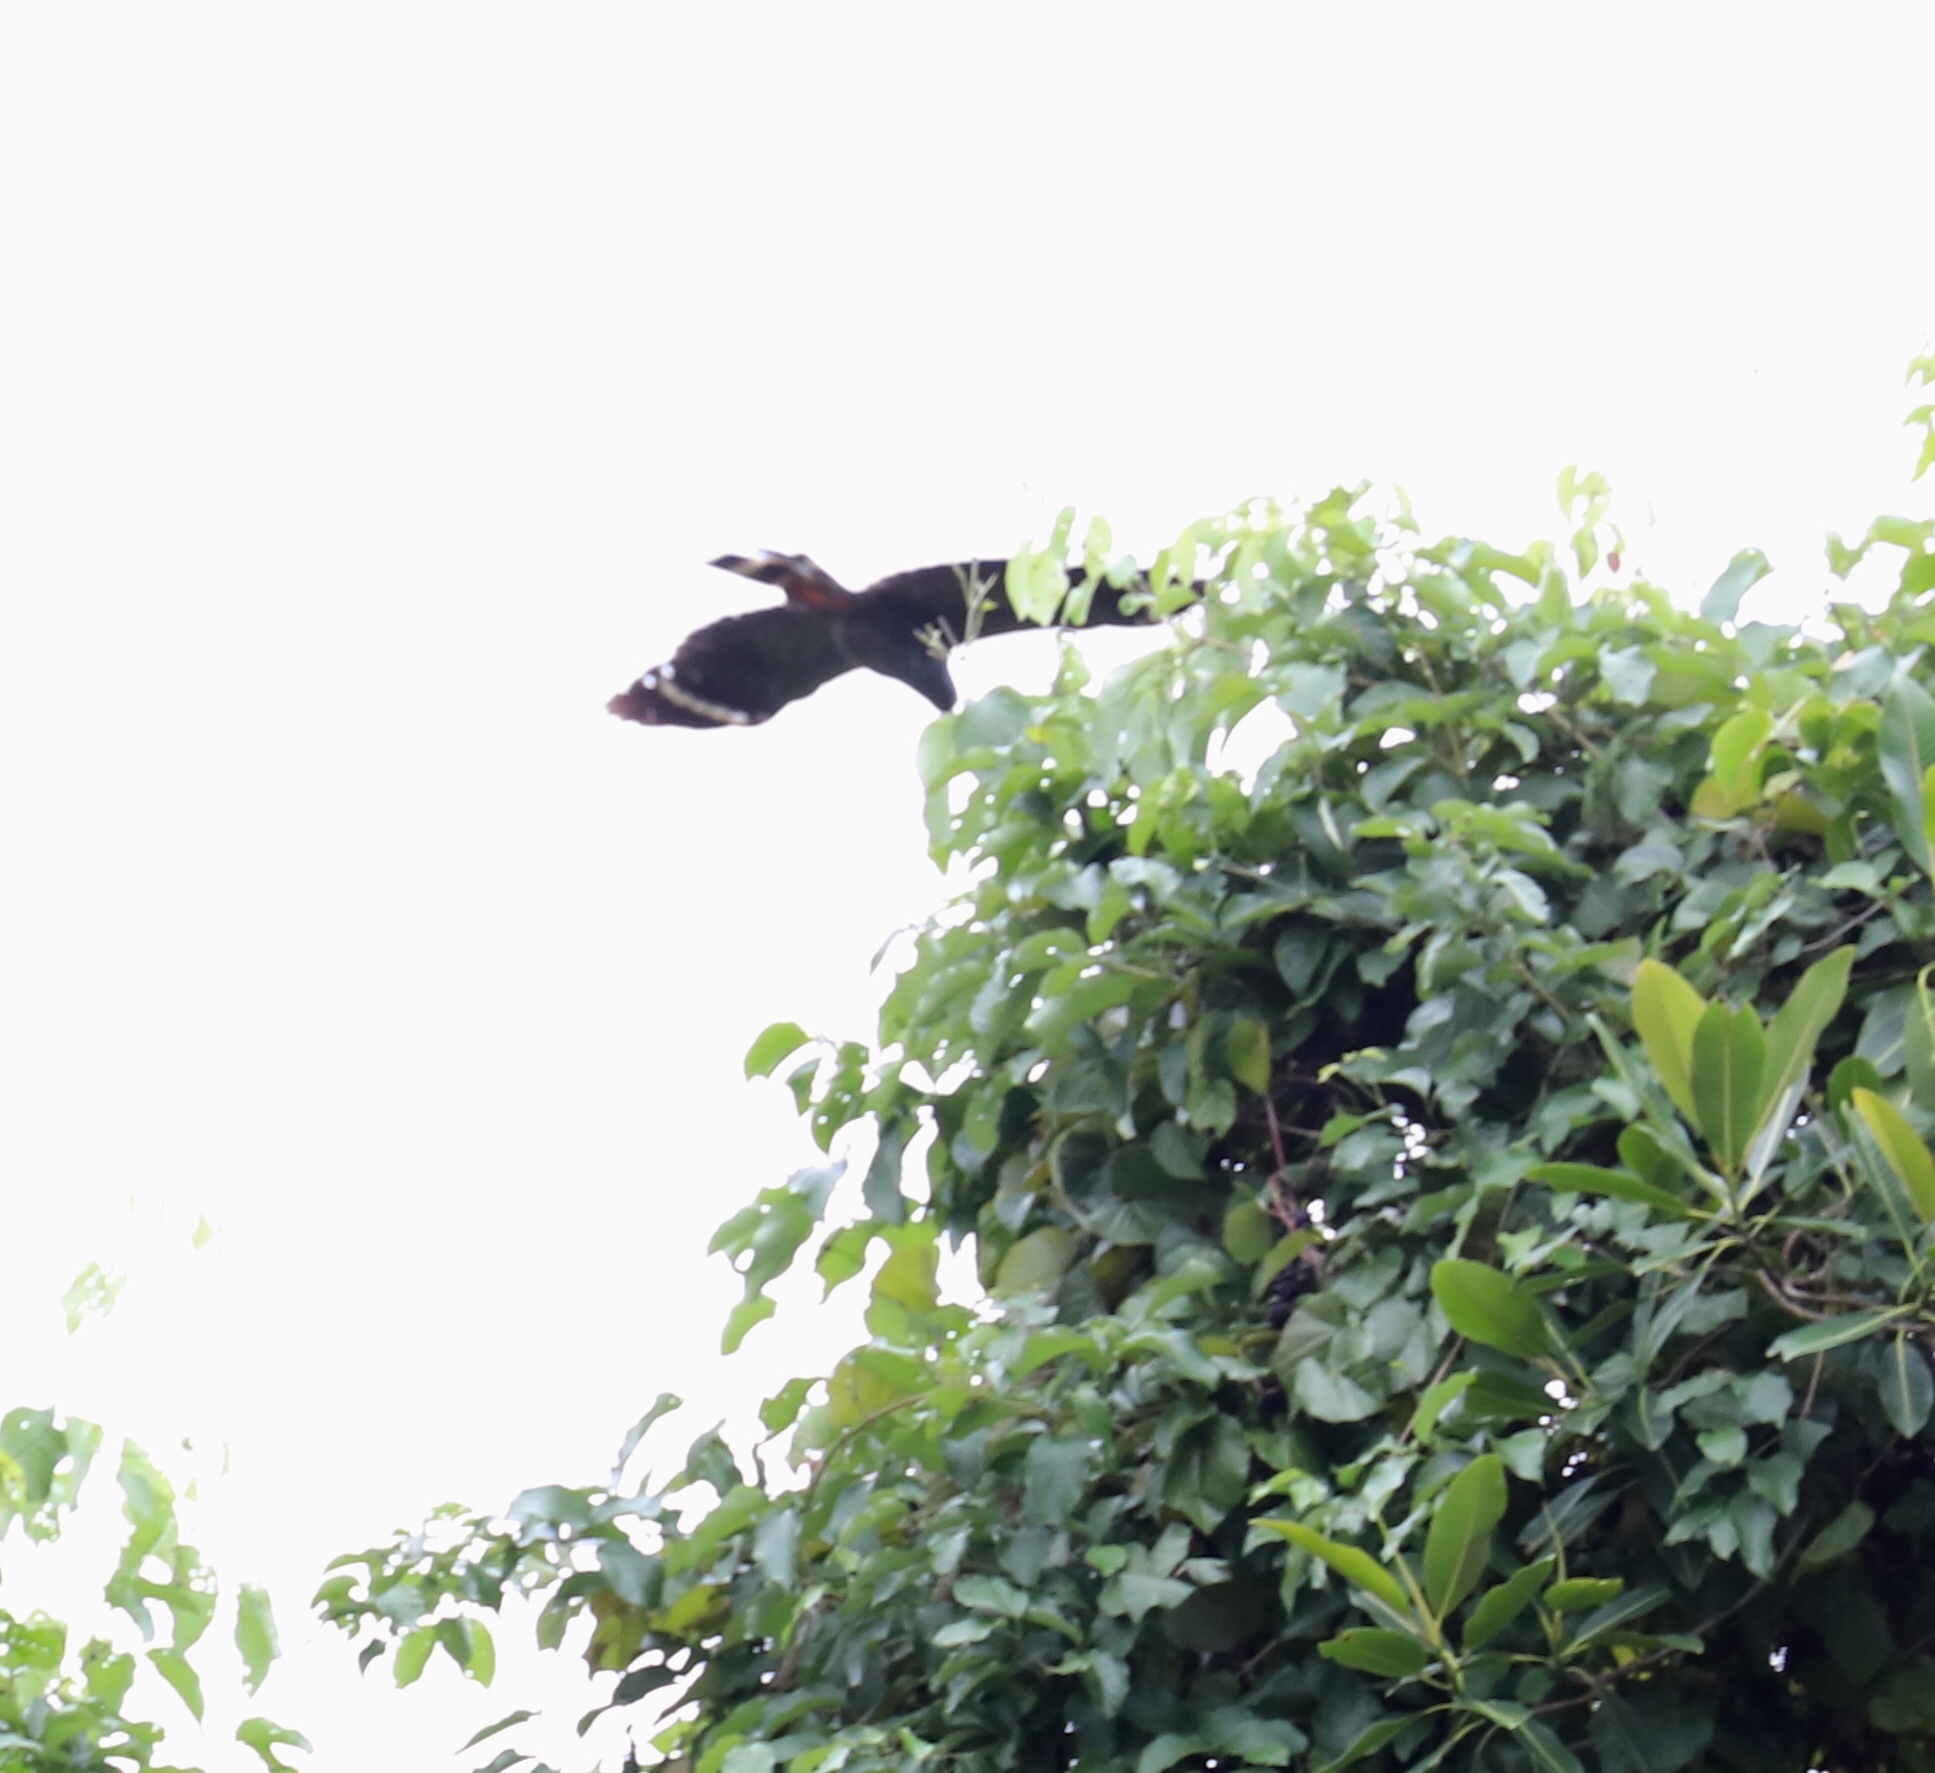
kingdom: Animalia
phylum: Chordata
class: Aves
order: Accipitriformes
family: Accipitridae
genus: Geranospiza
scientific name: Geranospiza caerulescens
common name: Crane hawk
